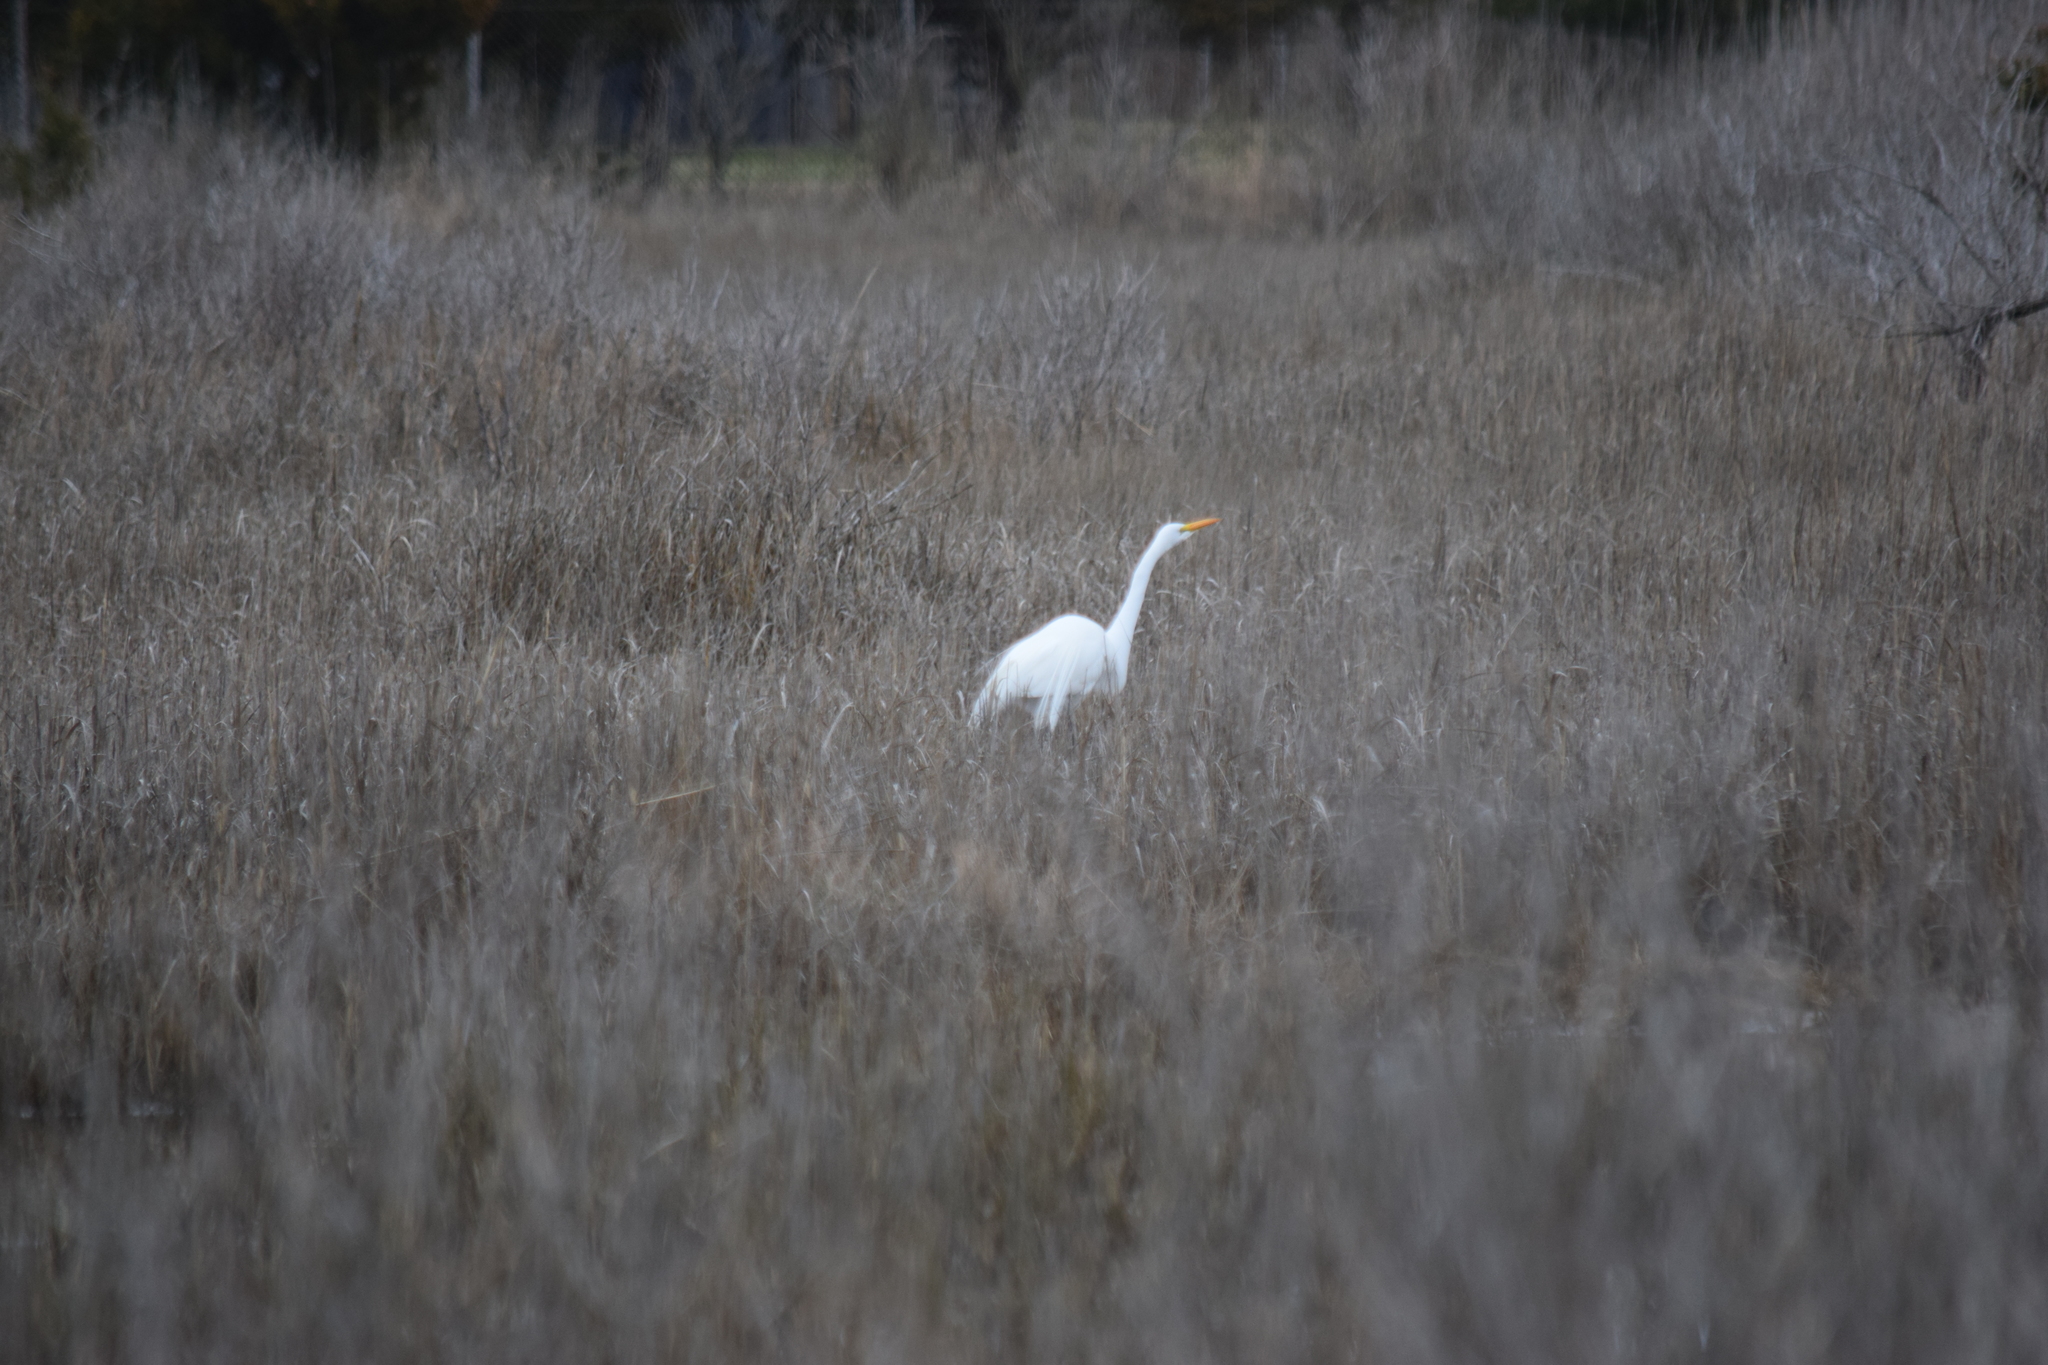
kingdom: Animalia
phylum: Chordata
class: Aves
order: Pelecaniformes
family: Ardeidae
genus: Ardea
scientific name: Ardea alba
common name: Great egret
